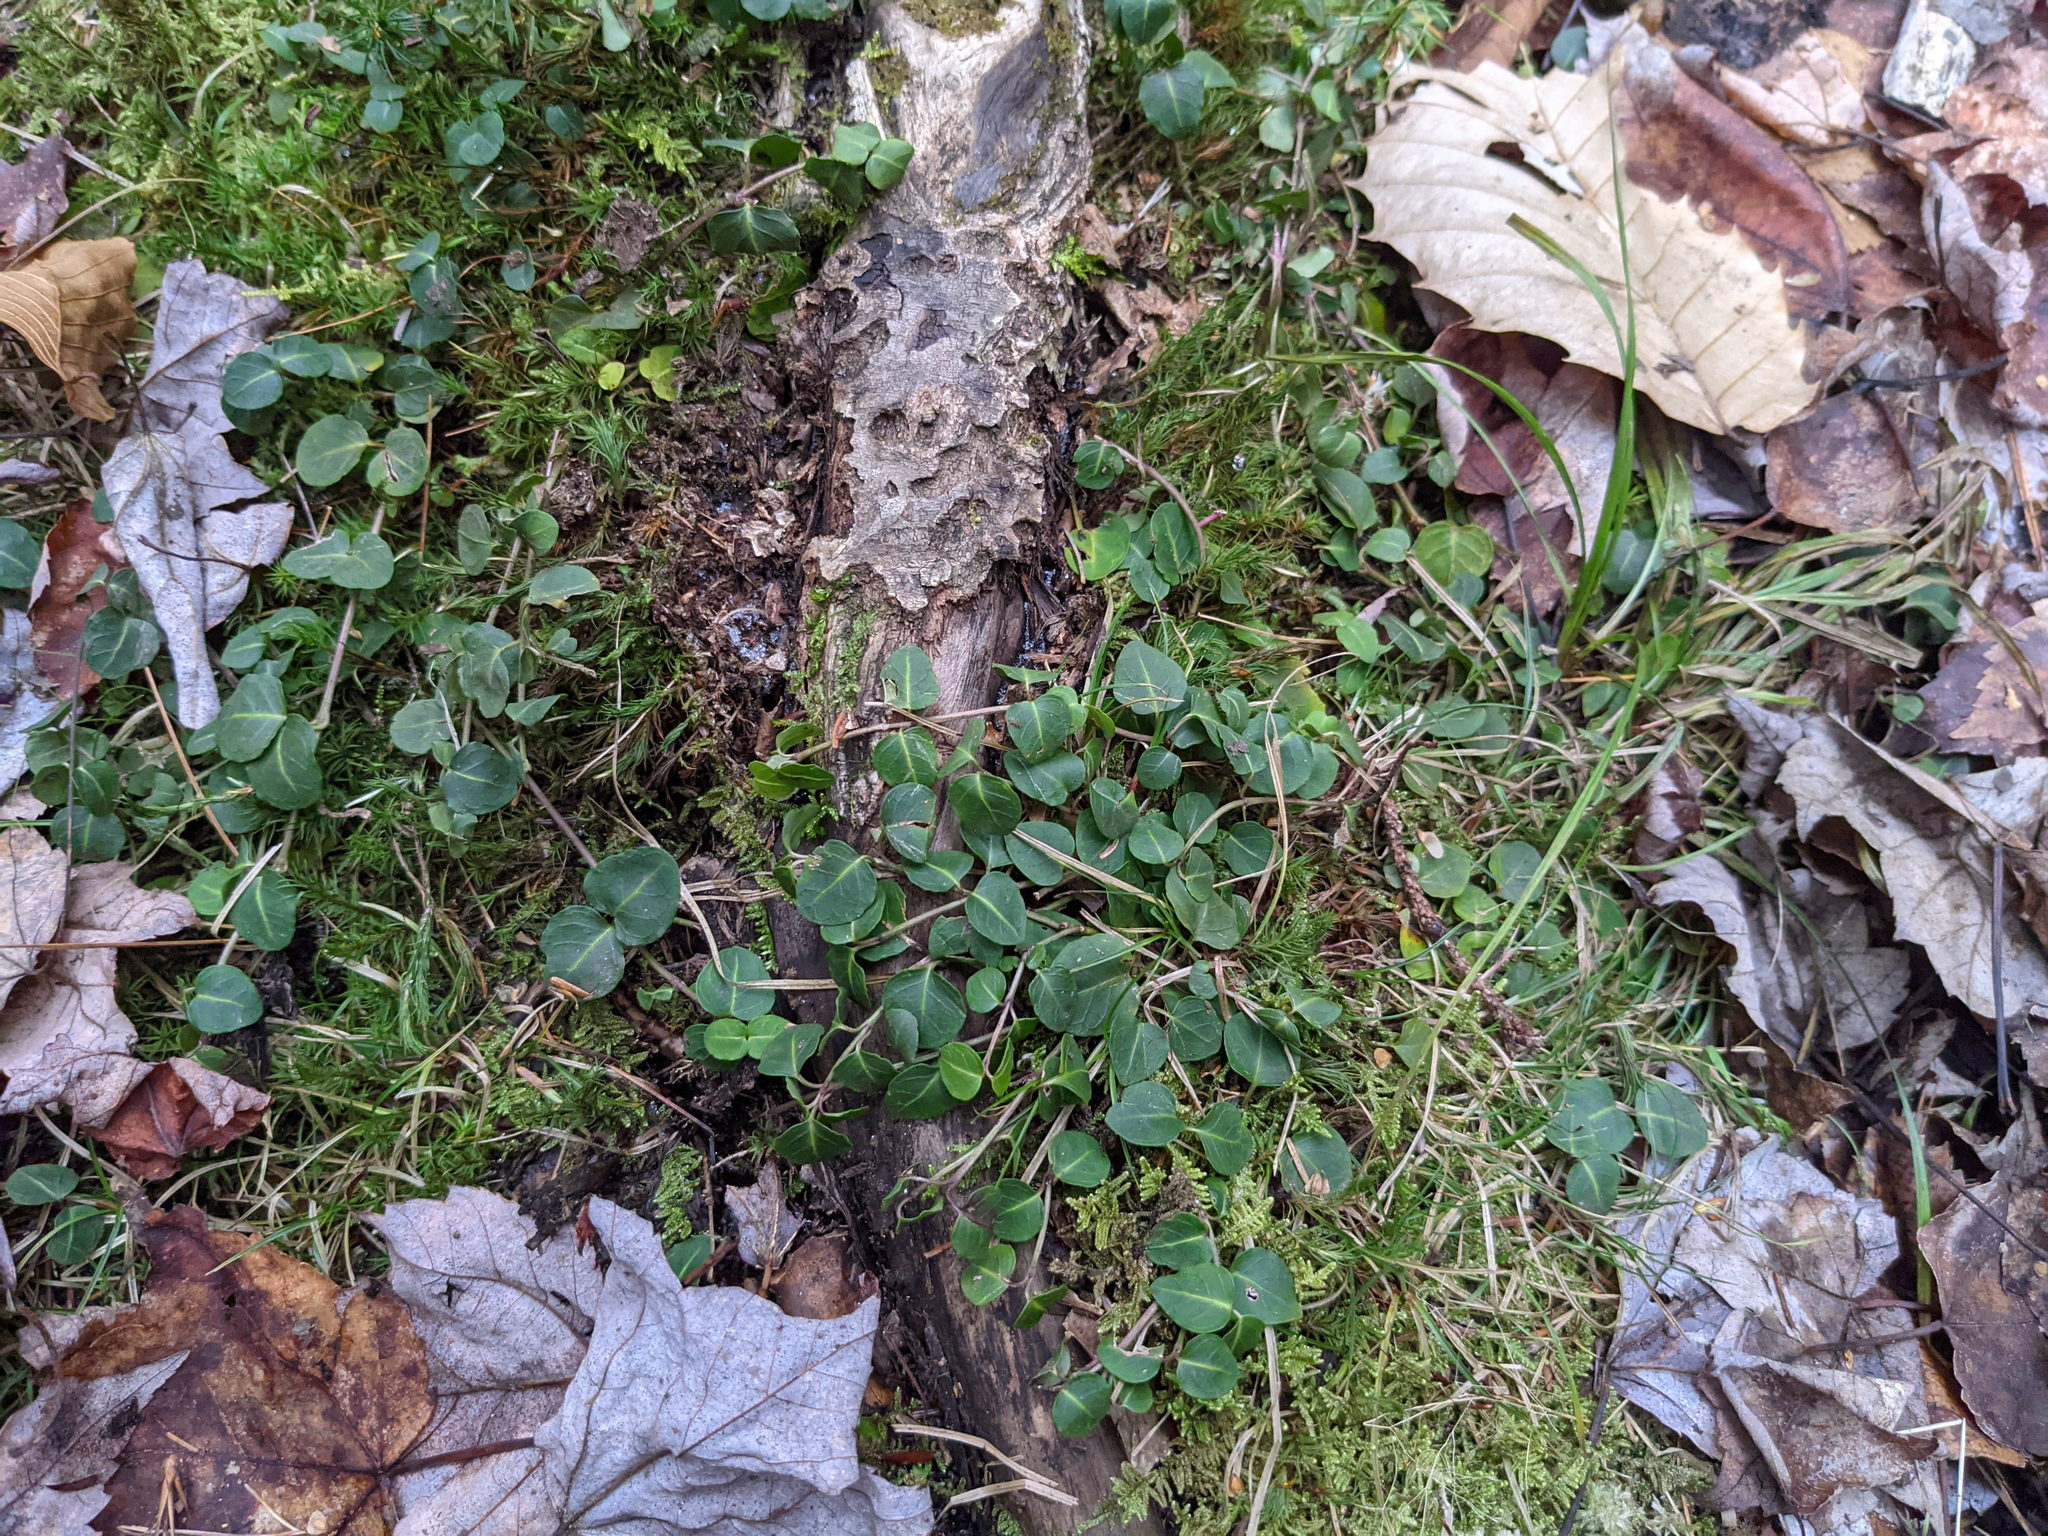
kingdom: Plantae
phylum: Tracheophyta
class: Magnoliopsida
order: Gentianales
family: Rubiaceae
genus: Mitchella
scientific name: Mitchella repens
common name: Partridge-berry
